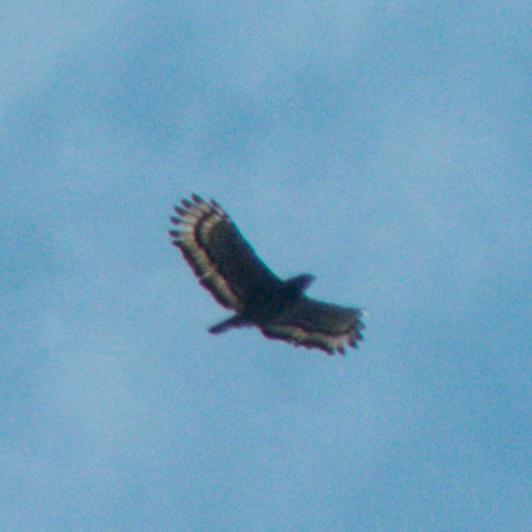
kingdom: Animalia
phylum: Chordata
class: Aves
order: Accipitriformes
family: Accipitridae
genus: Spilornis
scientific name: Spilornis cheela
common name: Crested serpent eagle
